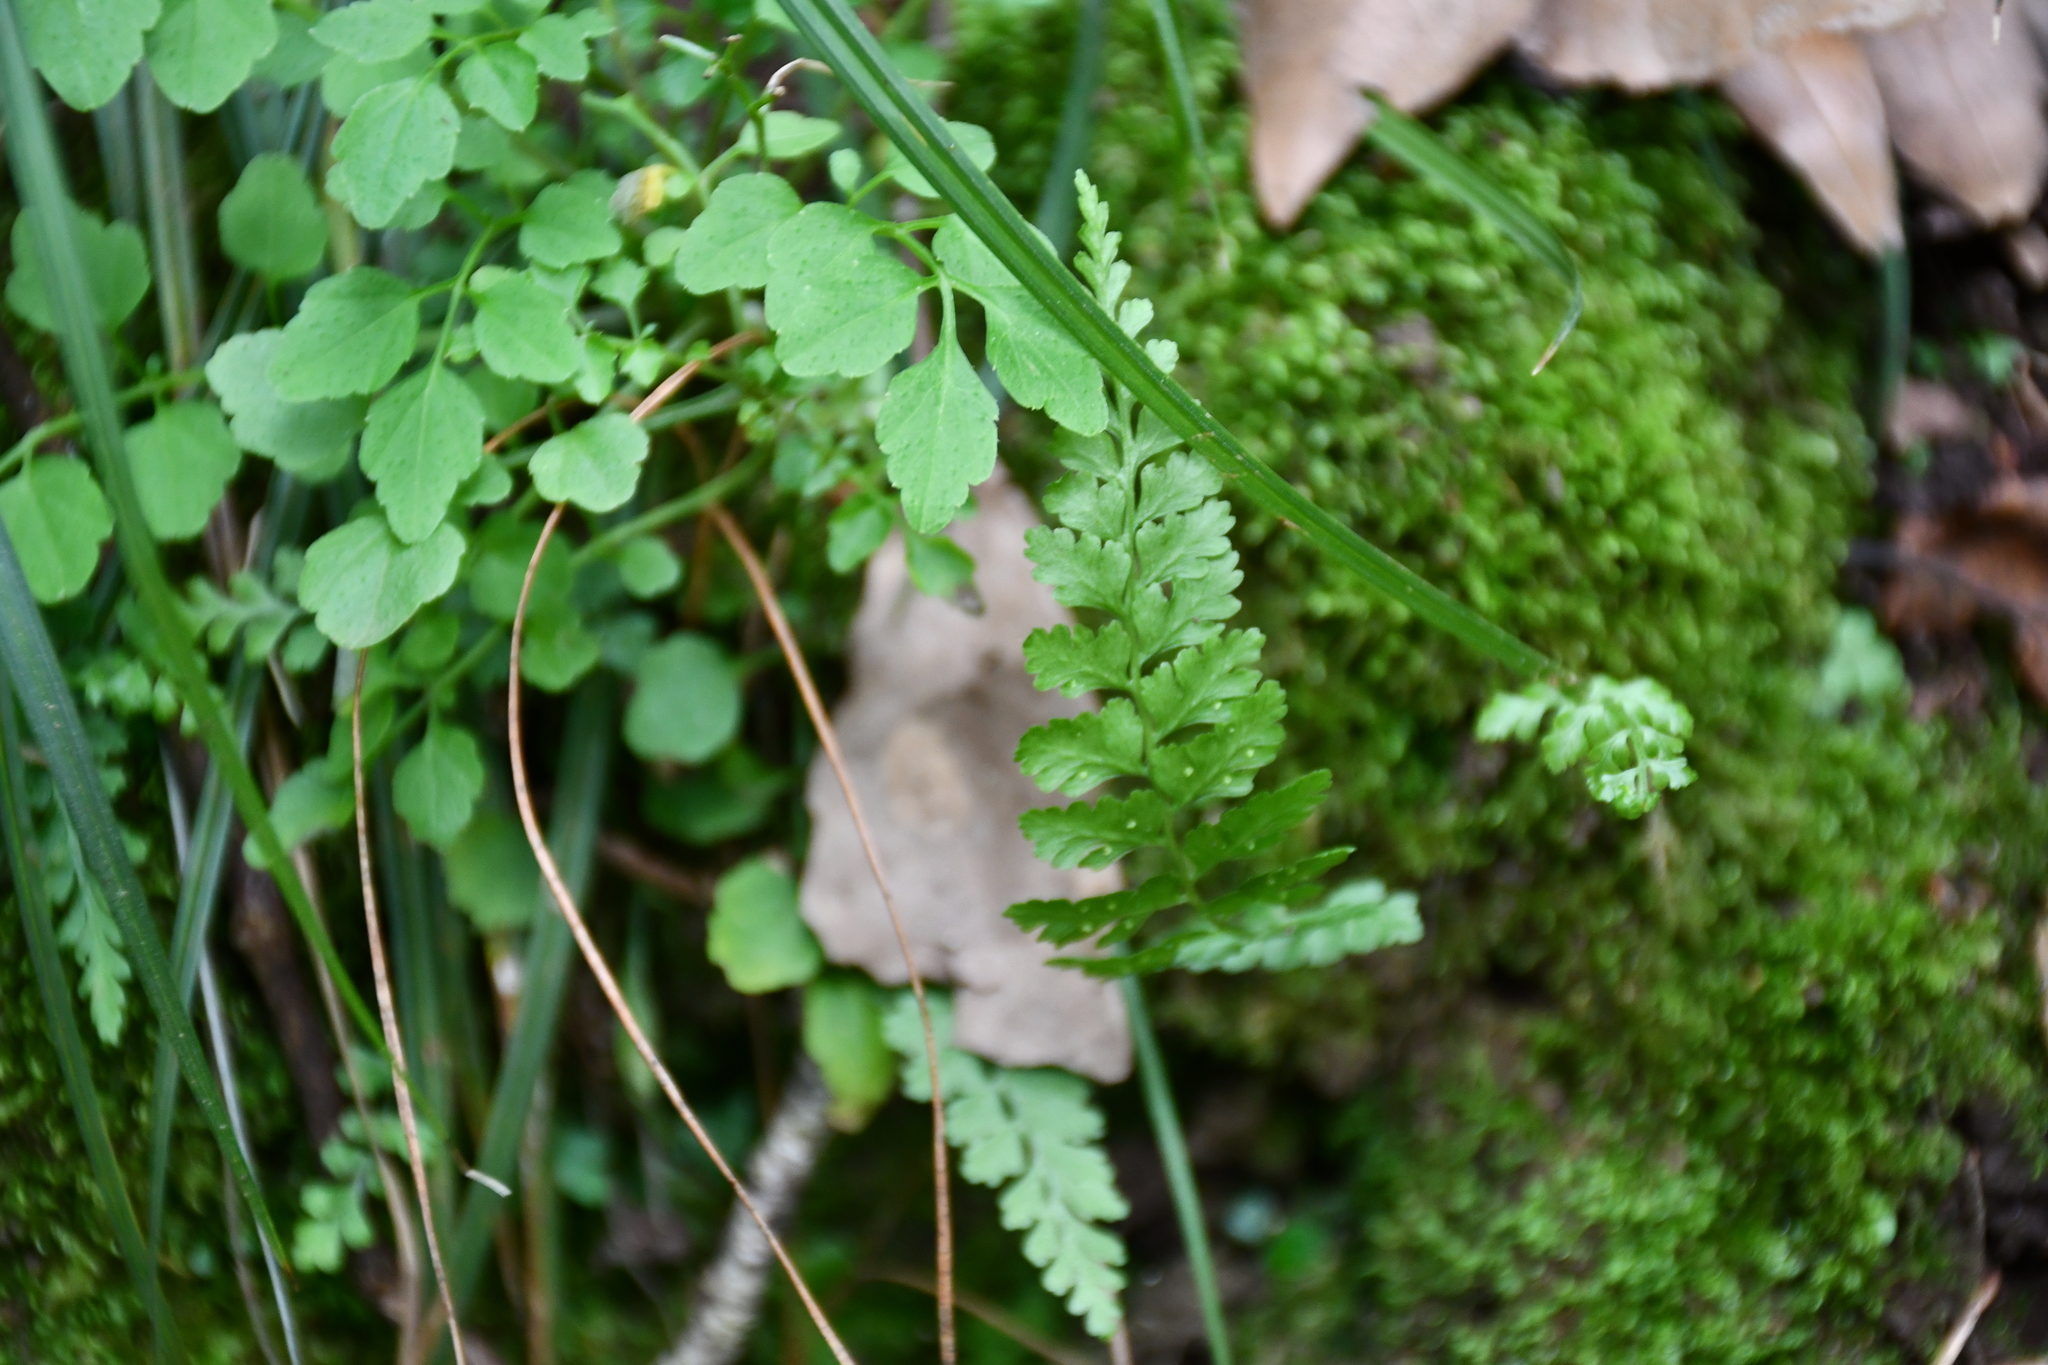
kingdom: Plantae
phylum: Tracheophyta
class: Polypodiopsida
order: Polypodiales
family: Cystopteridaceae
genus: Cystopteris
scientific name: Cystopteris fragilis
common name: Brittle bladder fern
